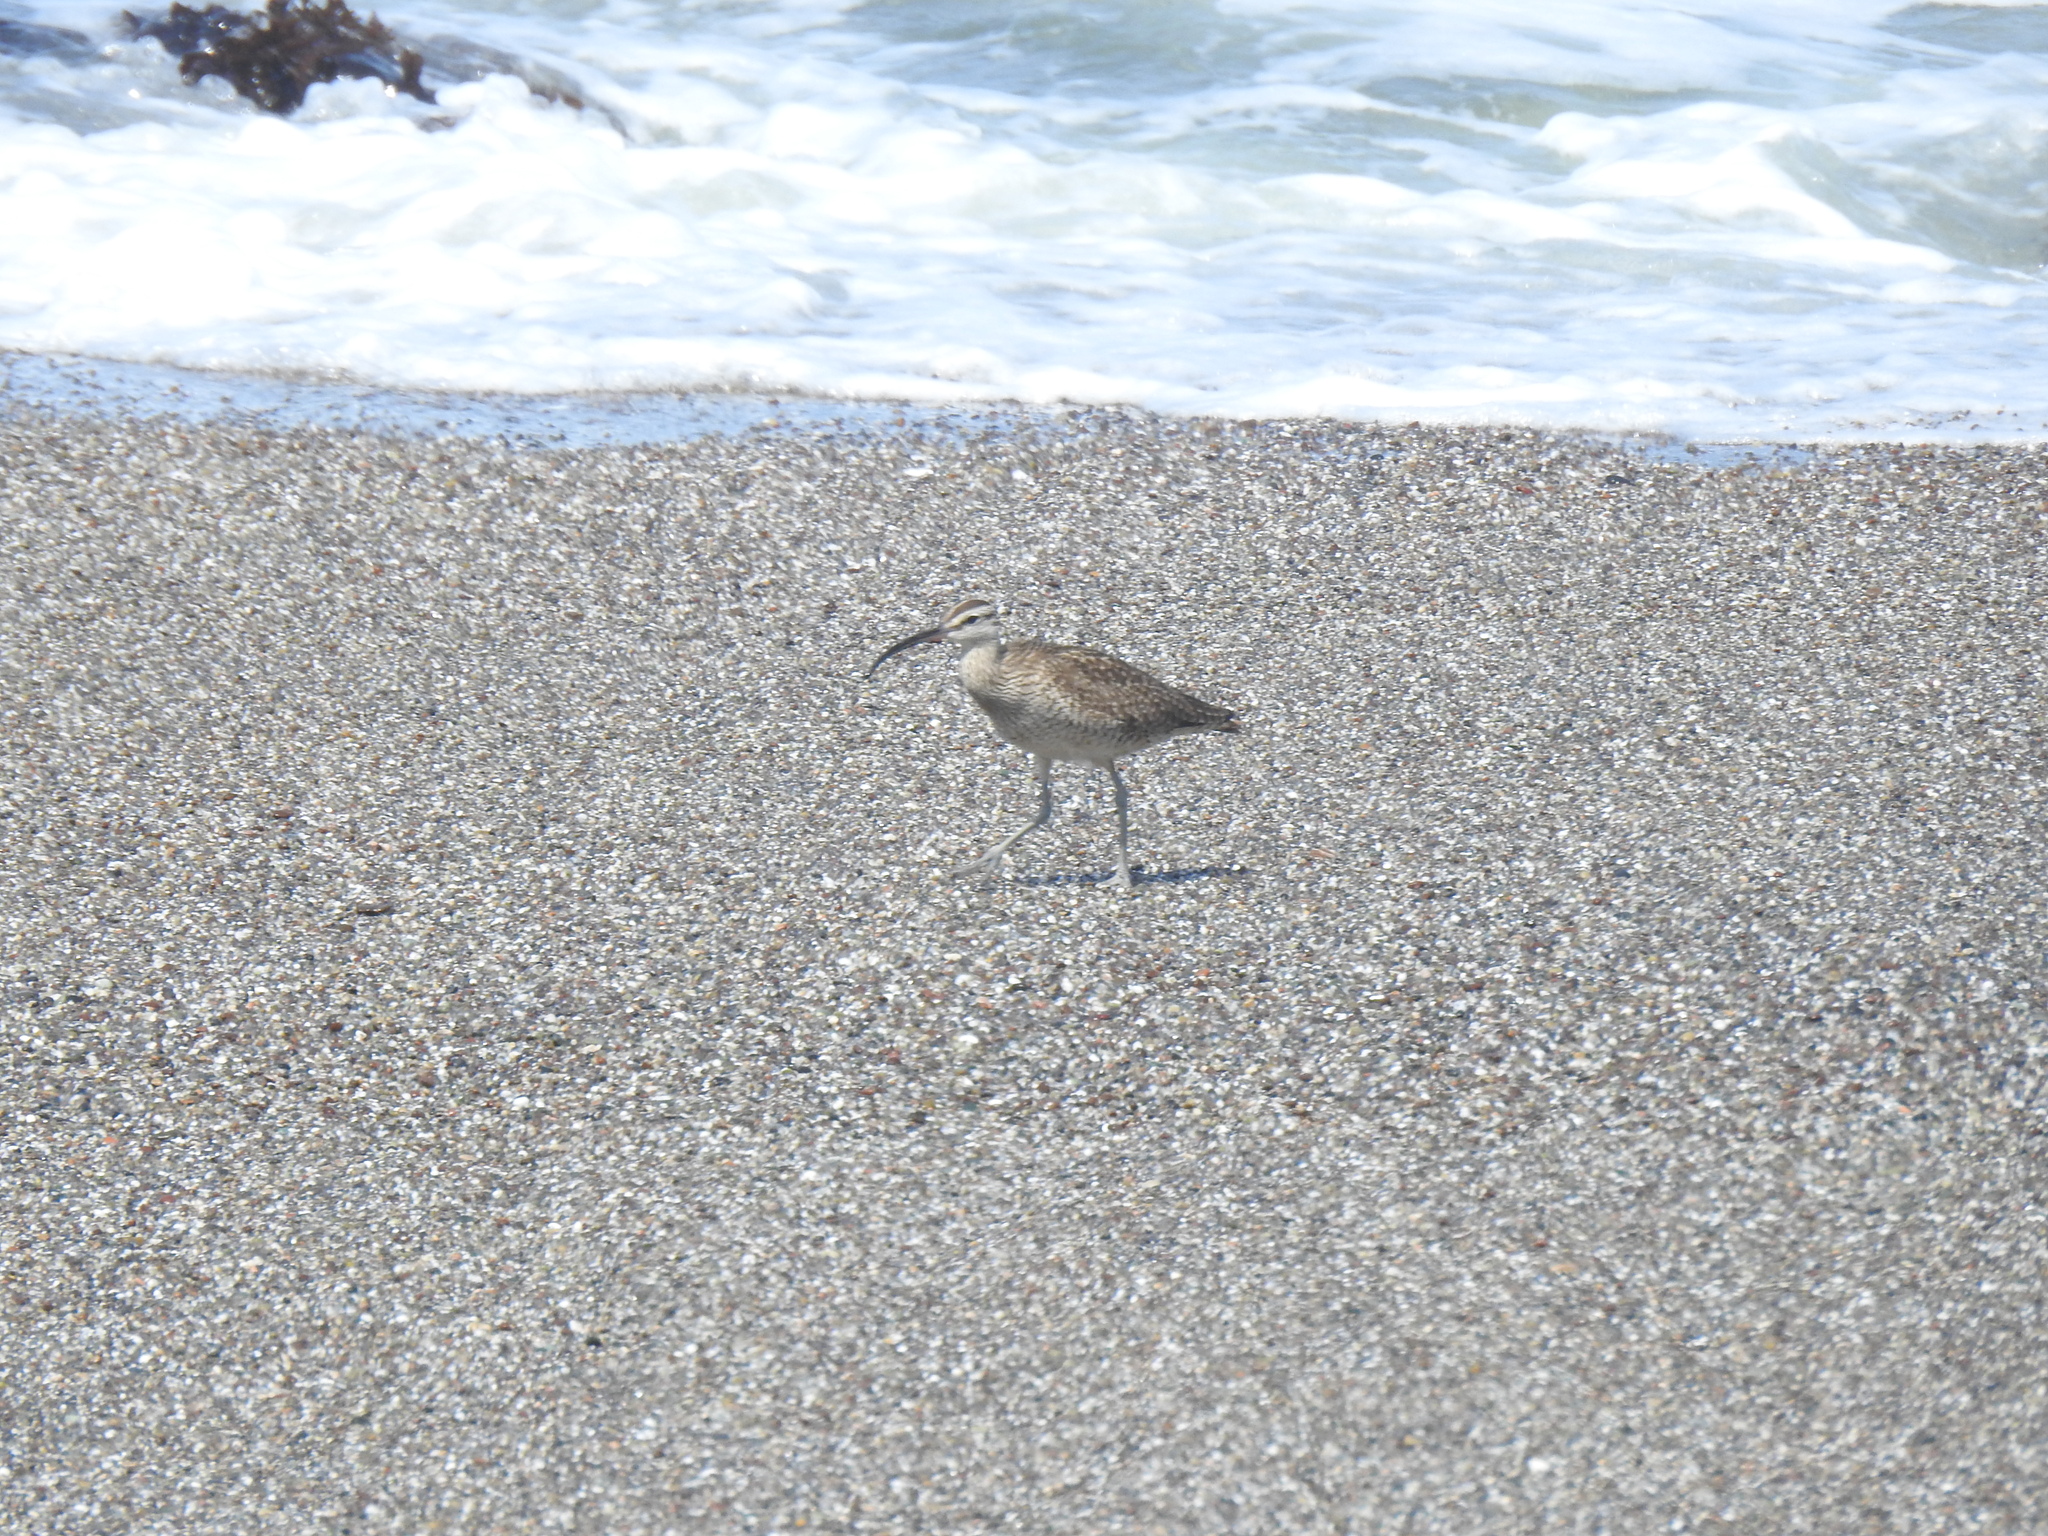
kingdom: Animalia
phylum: Chordata
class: Aves
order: Charadriiformes
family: Scolopacidae
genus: Numenius
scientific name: Numenius phaeopus
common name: Whimbrel
